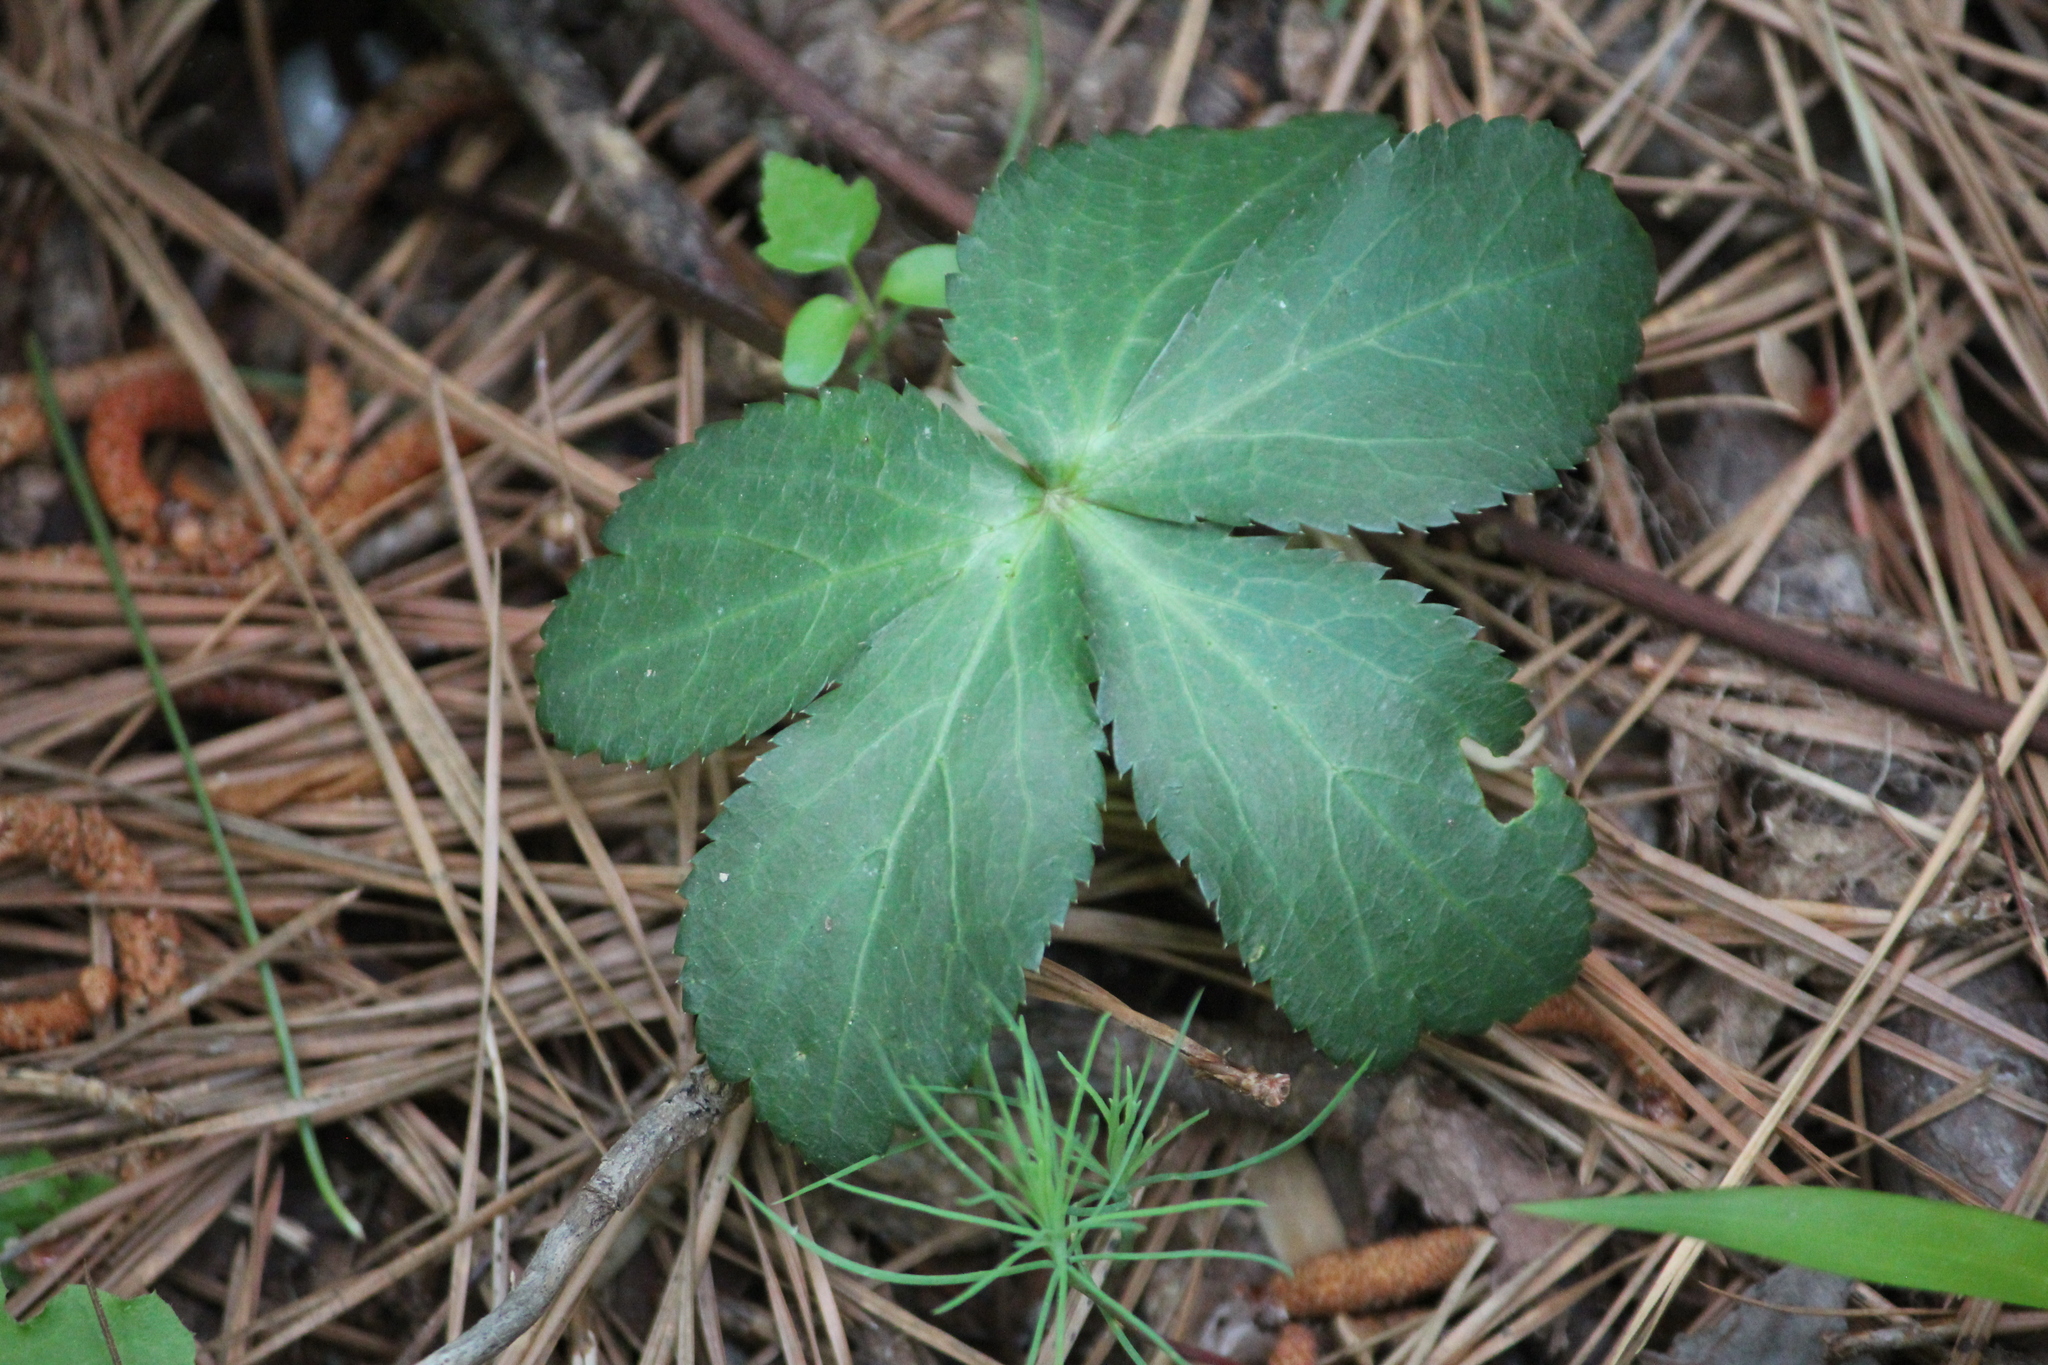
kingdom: Plantae
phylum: Tracheophyta
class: Magnoliopsida
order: Apiales
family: Apiaceae
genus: Sanicula
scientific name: Sanicula smallii
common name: Small's black snakeroot
